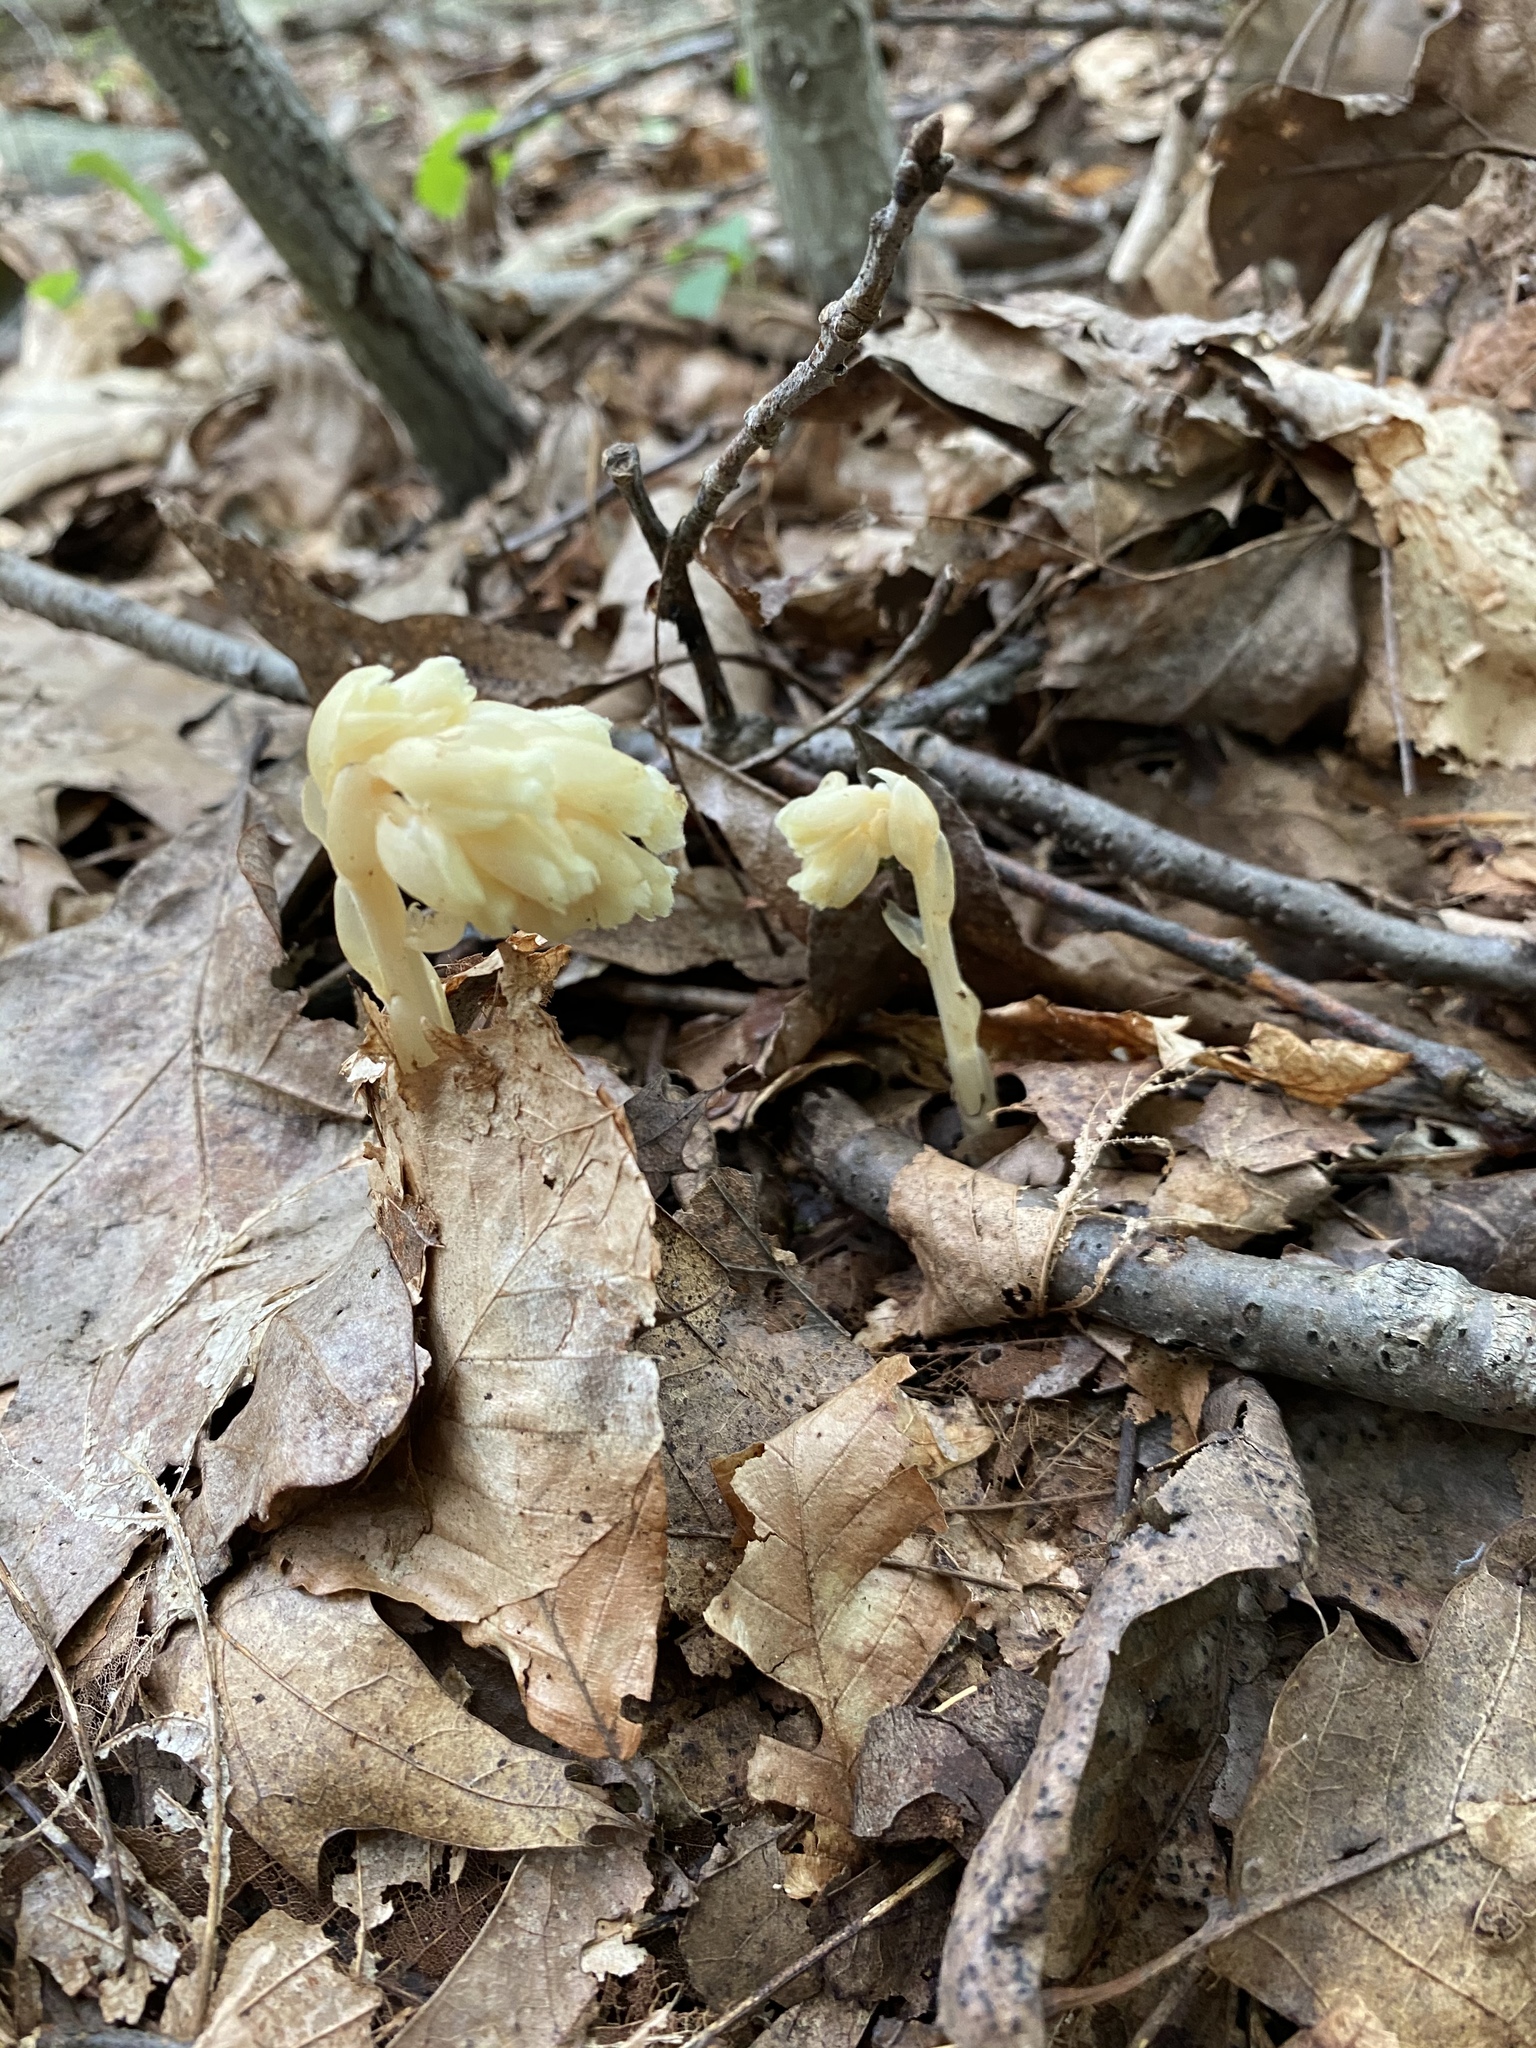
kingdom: Plantae
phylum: Tracheophyta
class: Magnoliopsida
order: Ericales
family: Ericaceae
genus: Hypopitys
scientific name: Hypopitys monotropa
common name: Yellow bird's-nest
